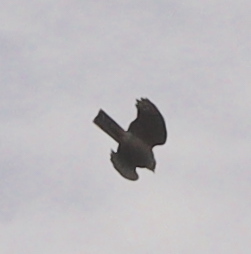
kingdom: Animalia
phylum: Chordata
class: Aves
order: Accipitriformes
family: Accipitridae
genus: Accipiter
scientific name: Accipiter nisus
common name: Eurasian sparrowhawk
